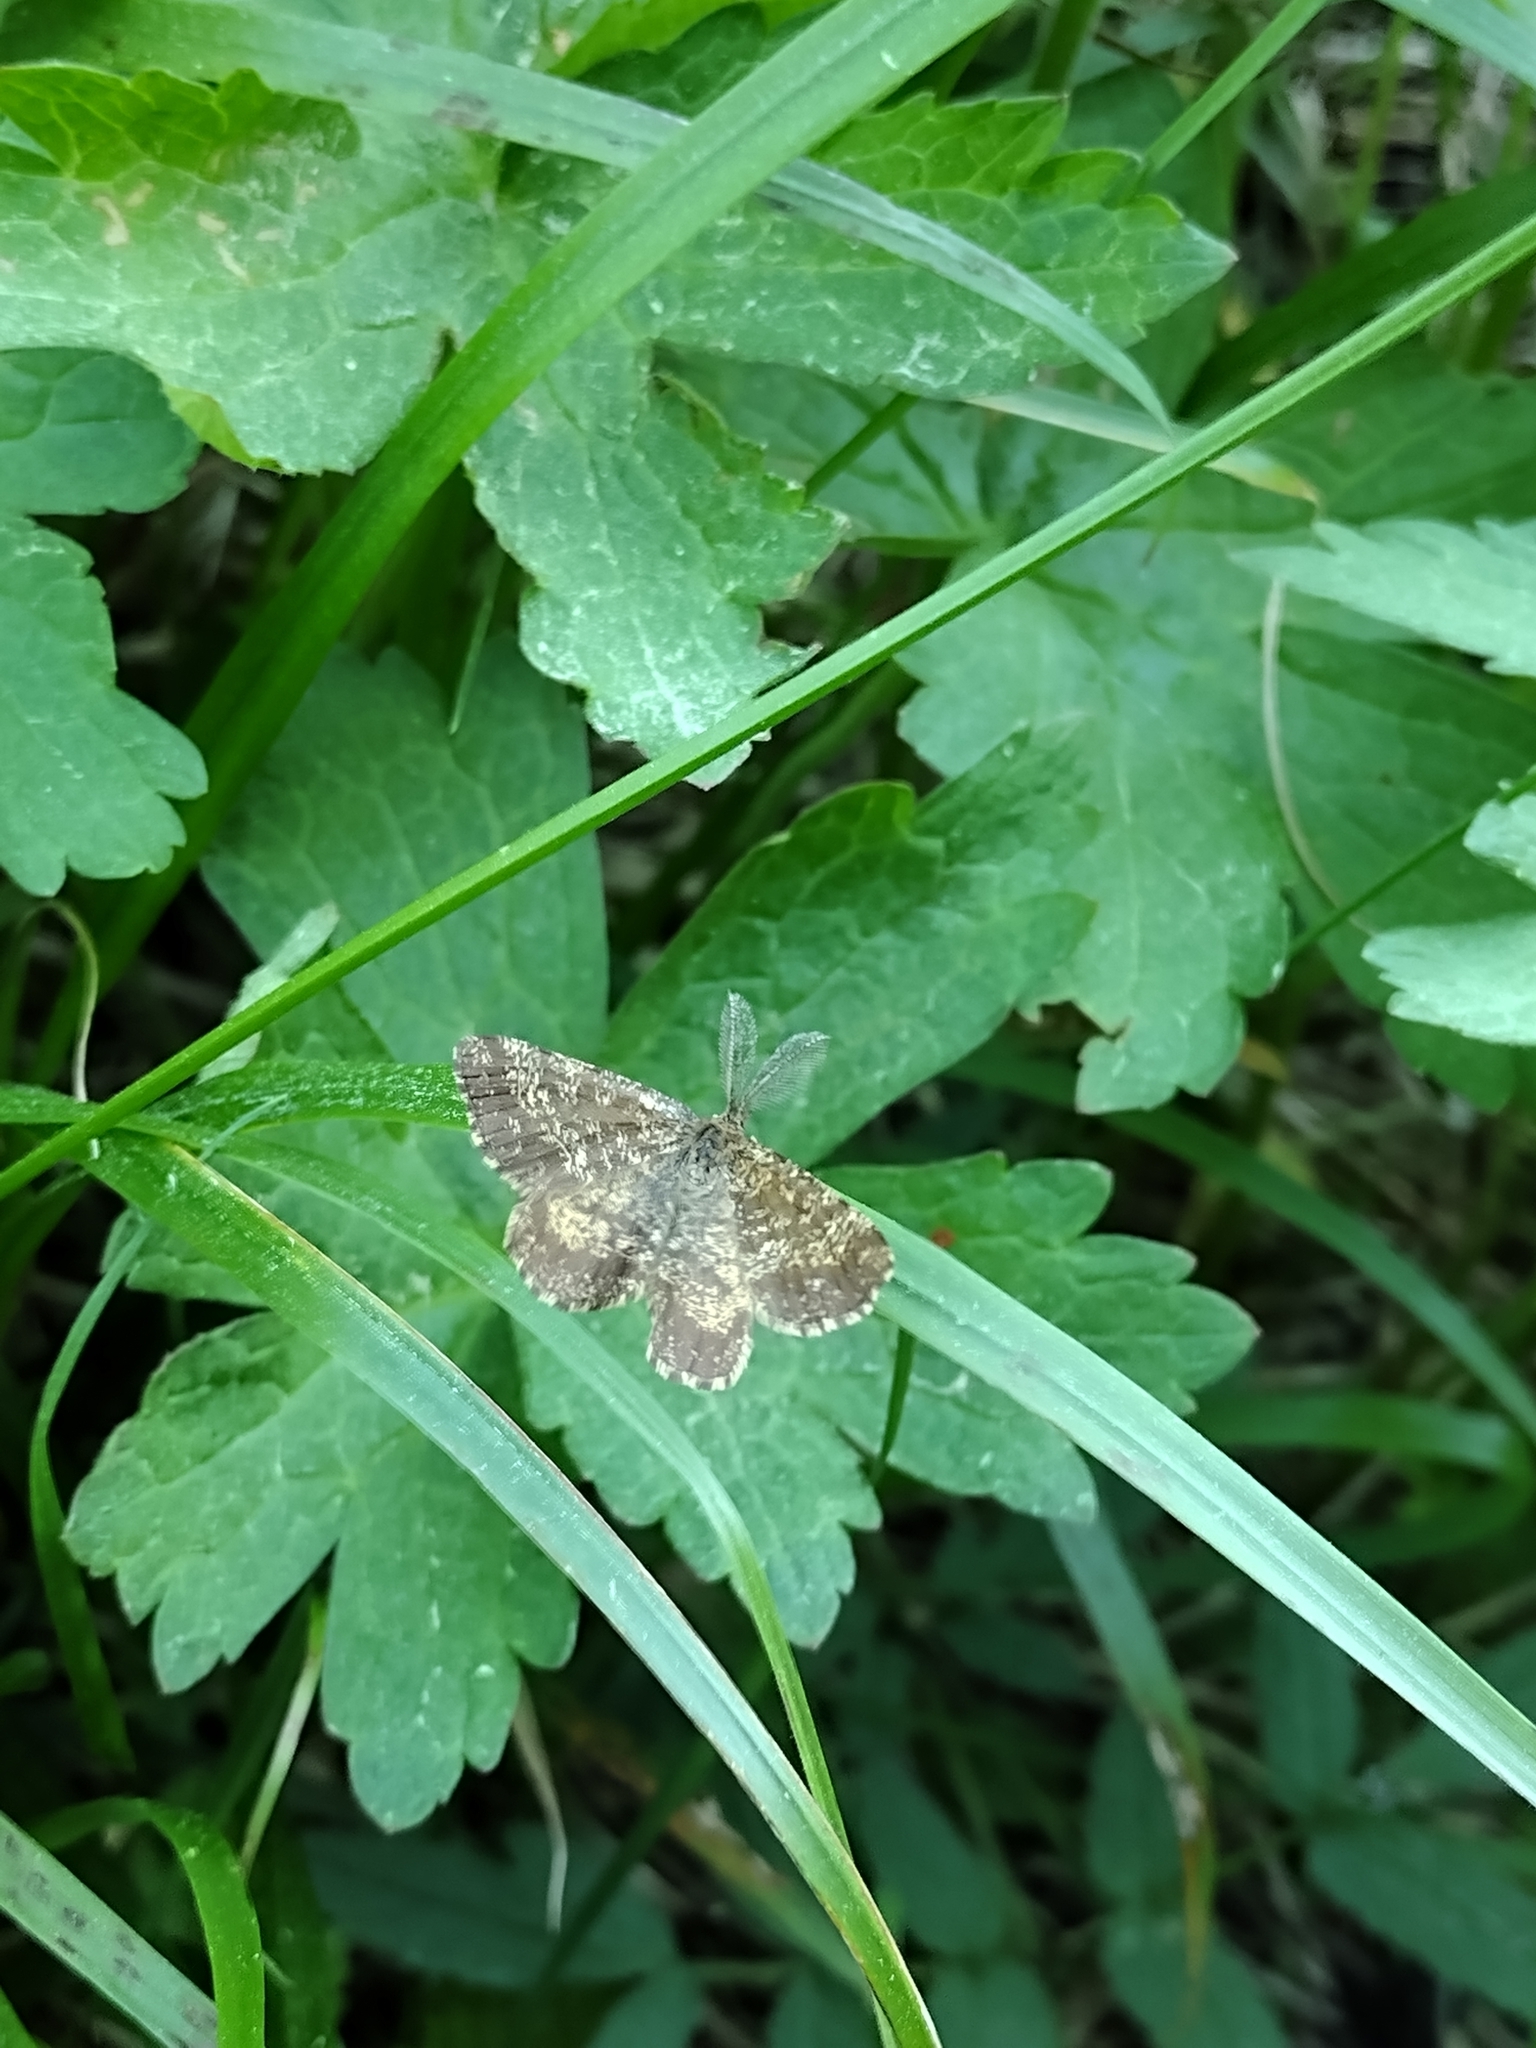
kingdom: Animalia
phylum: Arthropoda
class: Insecta
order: Lepidoptera
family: Geometridae
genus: Ematurga
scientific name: Ematurga atomaria
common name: Common heath
